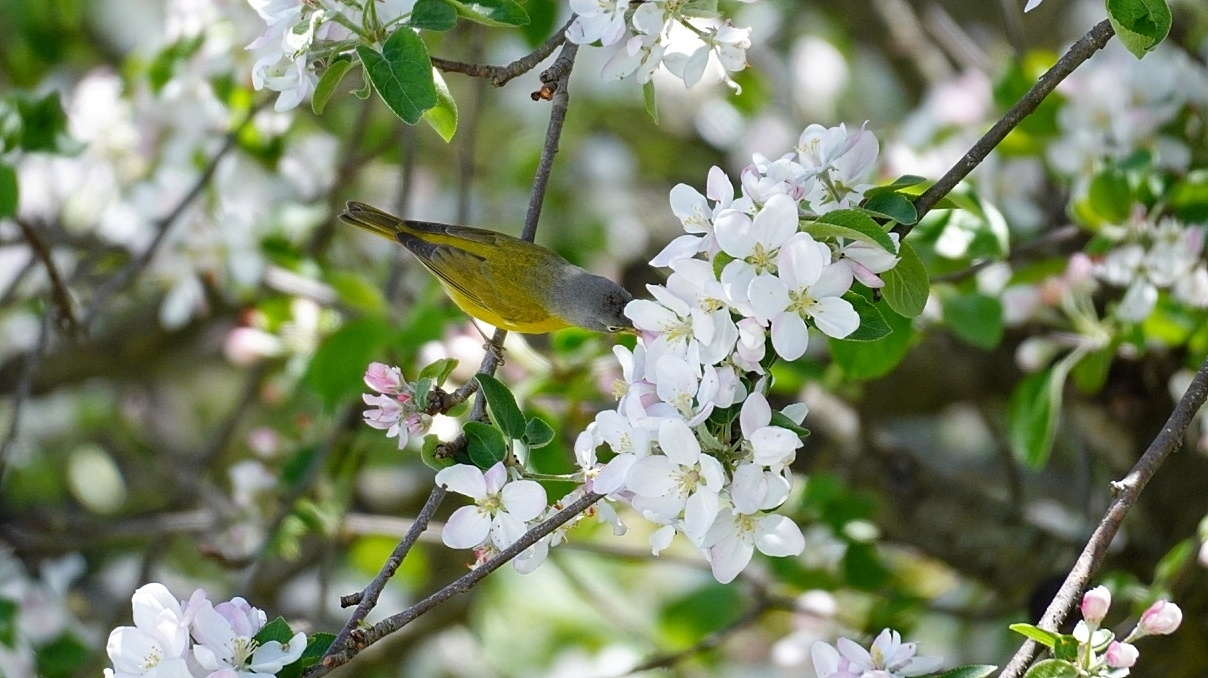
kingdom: Animalia
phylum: Chordata
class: Aves
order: Passeriformes
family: Parulidae
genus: Leiothlypis
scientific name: Leiothlypis ruficapilla
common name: Nashville warbler
